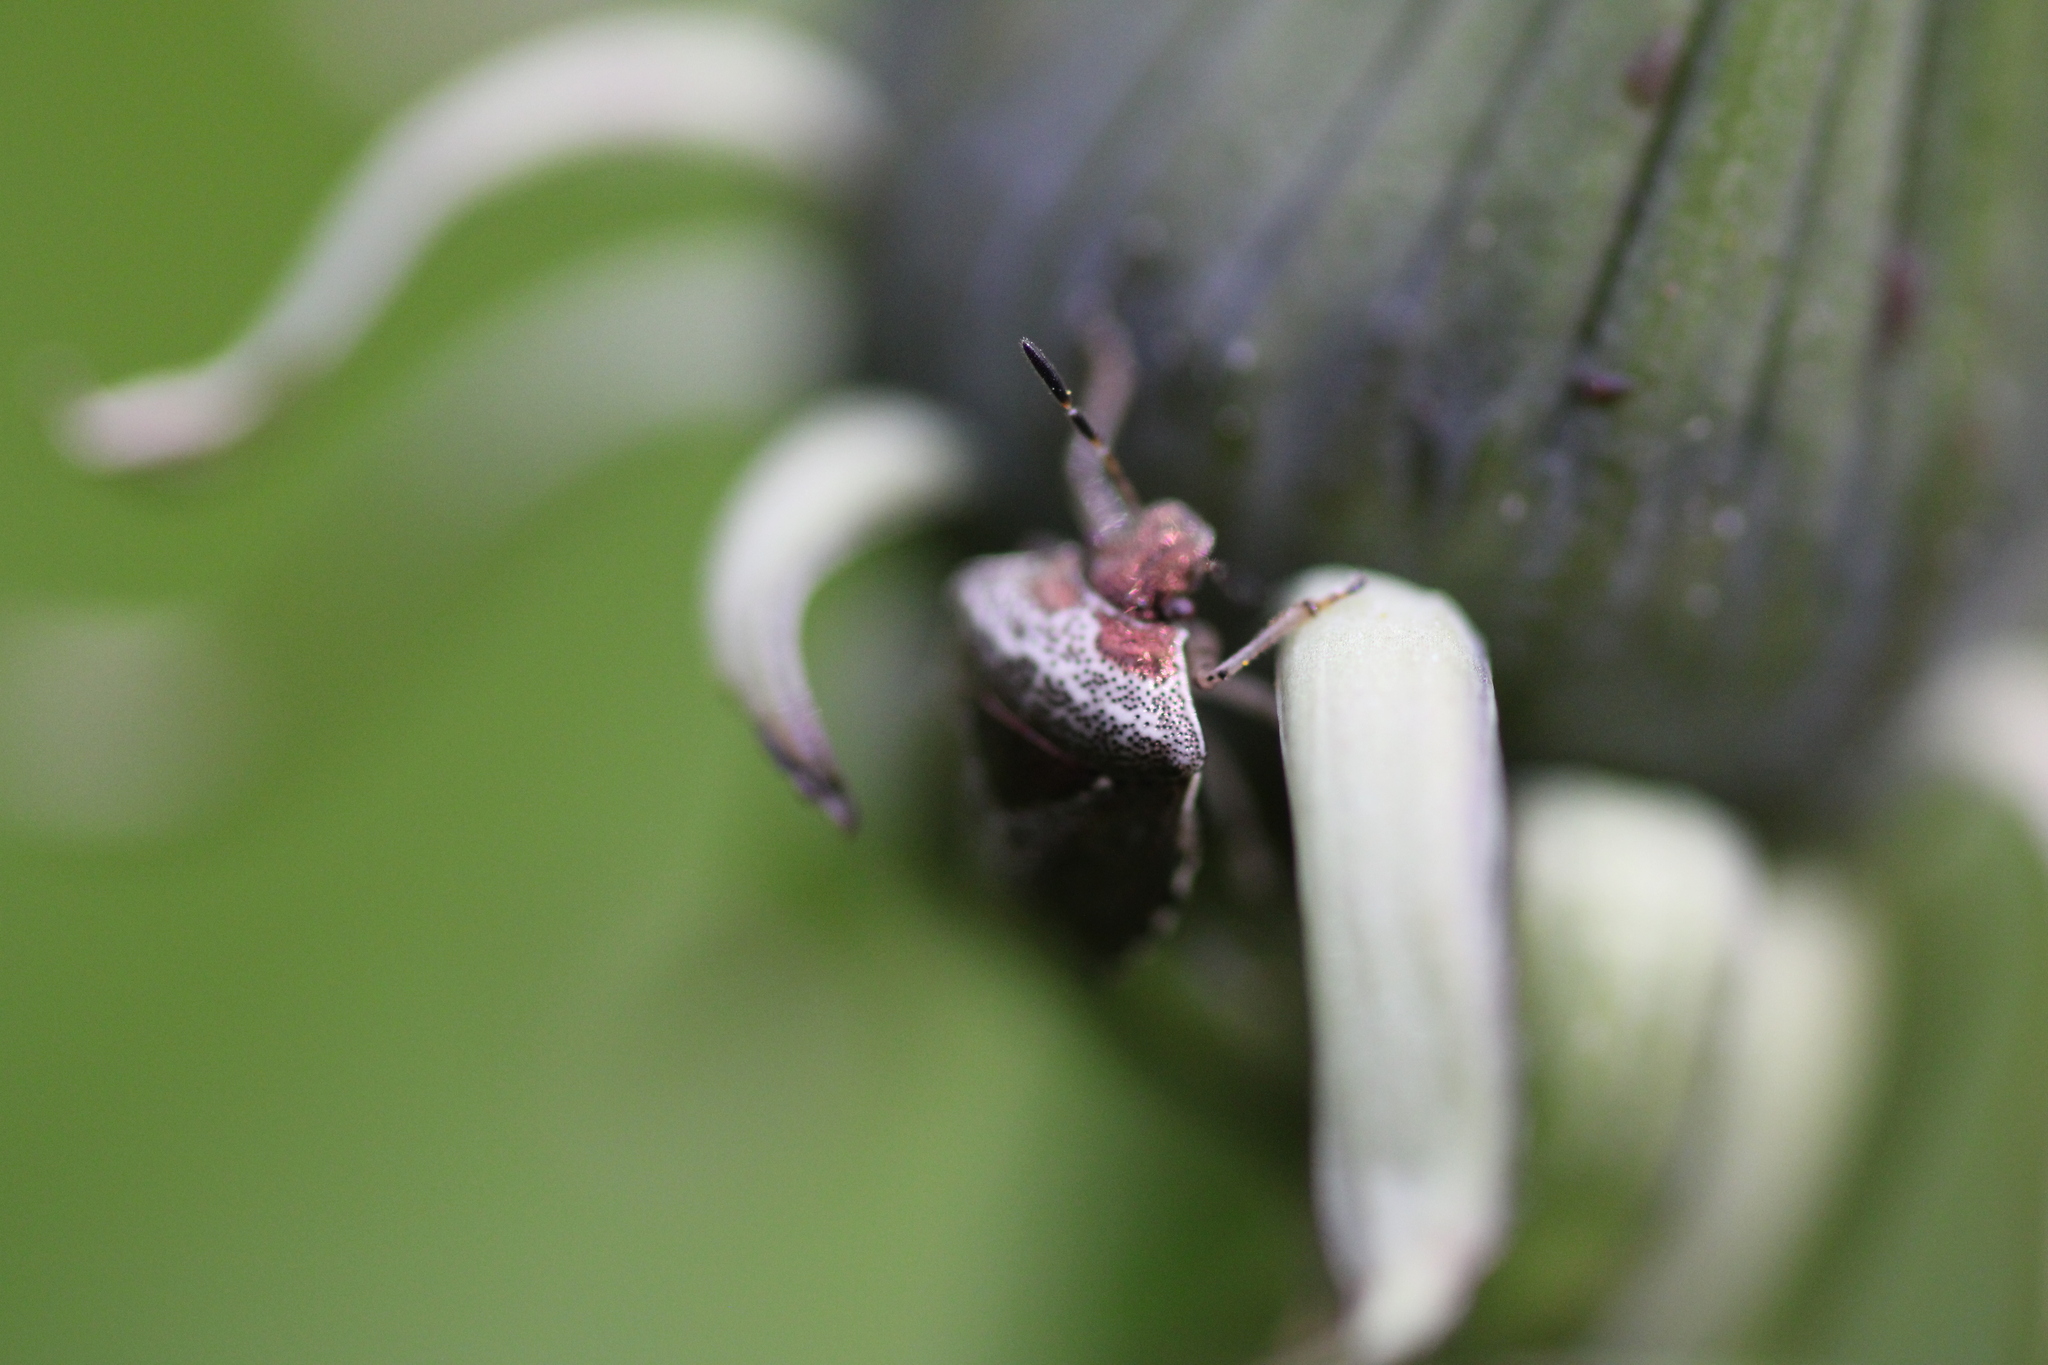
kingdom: Animalia
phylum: Arthropoda
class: Insecta
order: Hemiptera
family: Pentatomidae
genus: Eysarcoris
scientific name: Eysarcoris venustissimus
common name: Woundwort shieldbug
